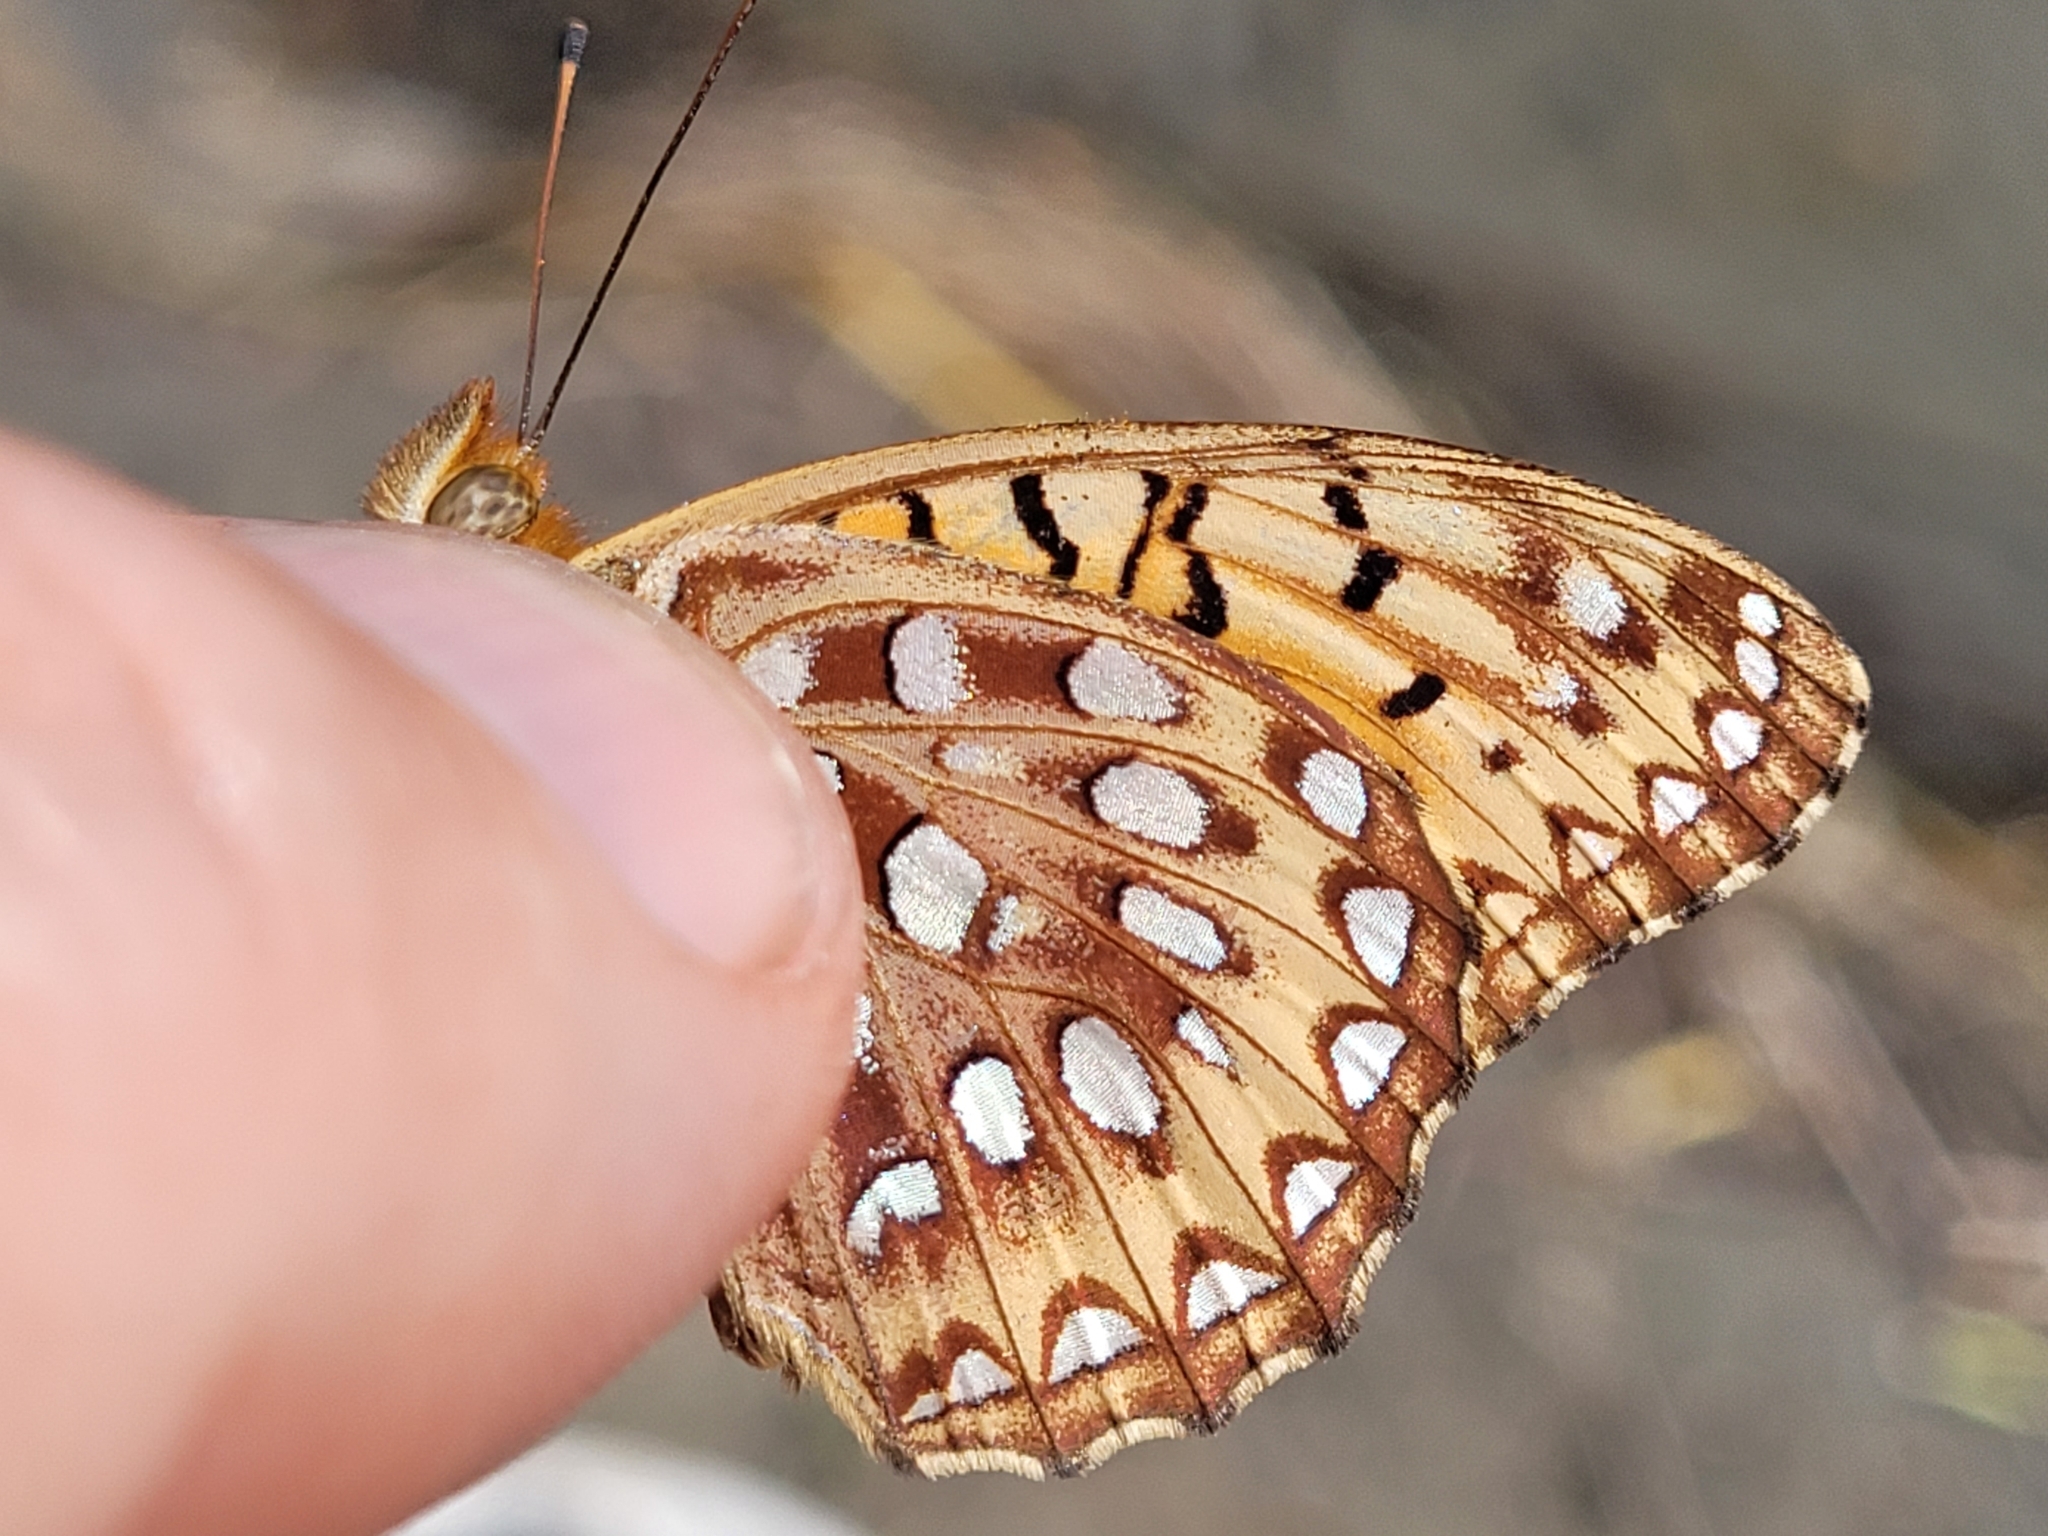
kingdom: Animalia
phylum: Arthropoda
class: Insecta
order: Lepidoptera
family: Nymphalidae
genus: Speyeria
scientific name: Speyeria aphrodite
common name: Aphrodite friitllary
